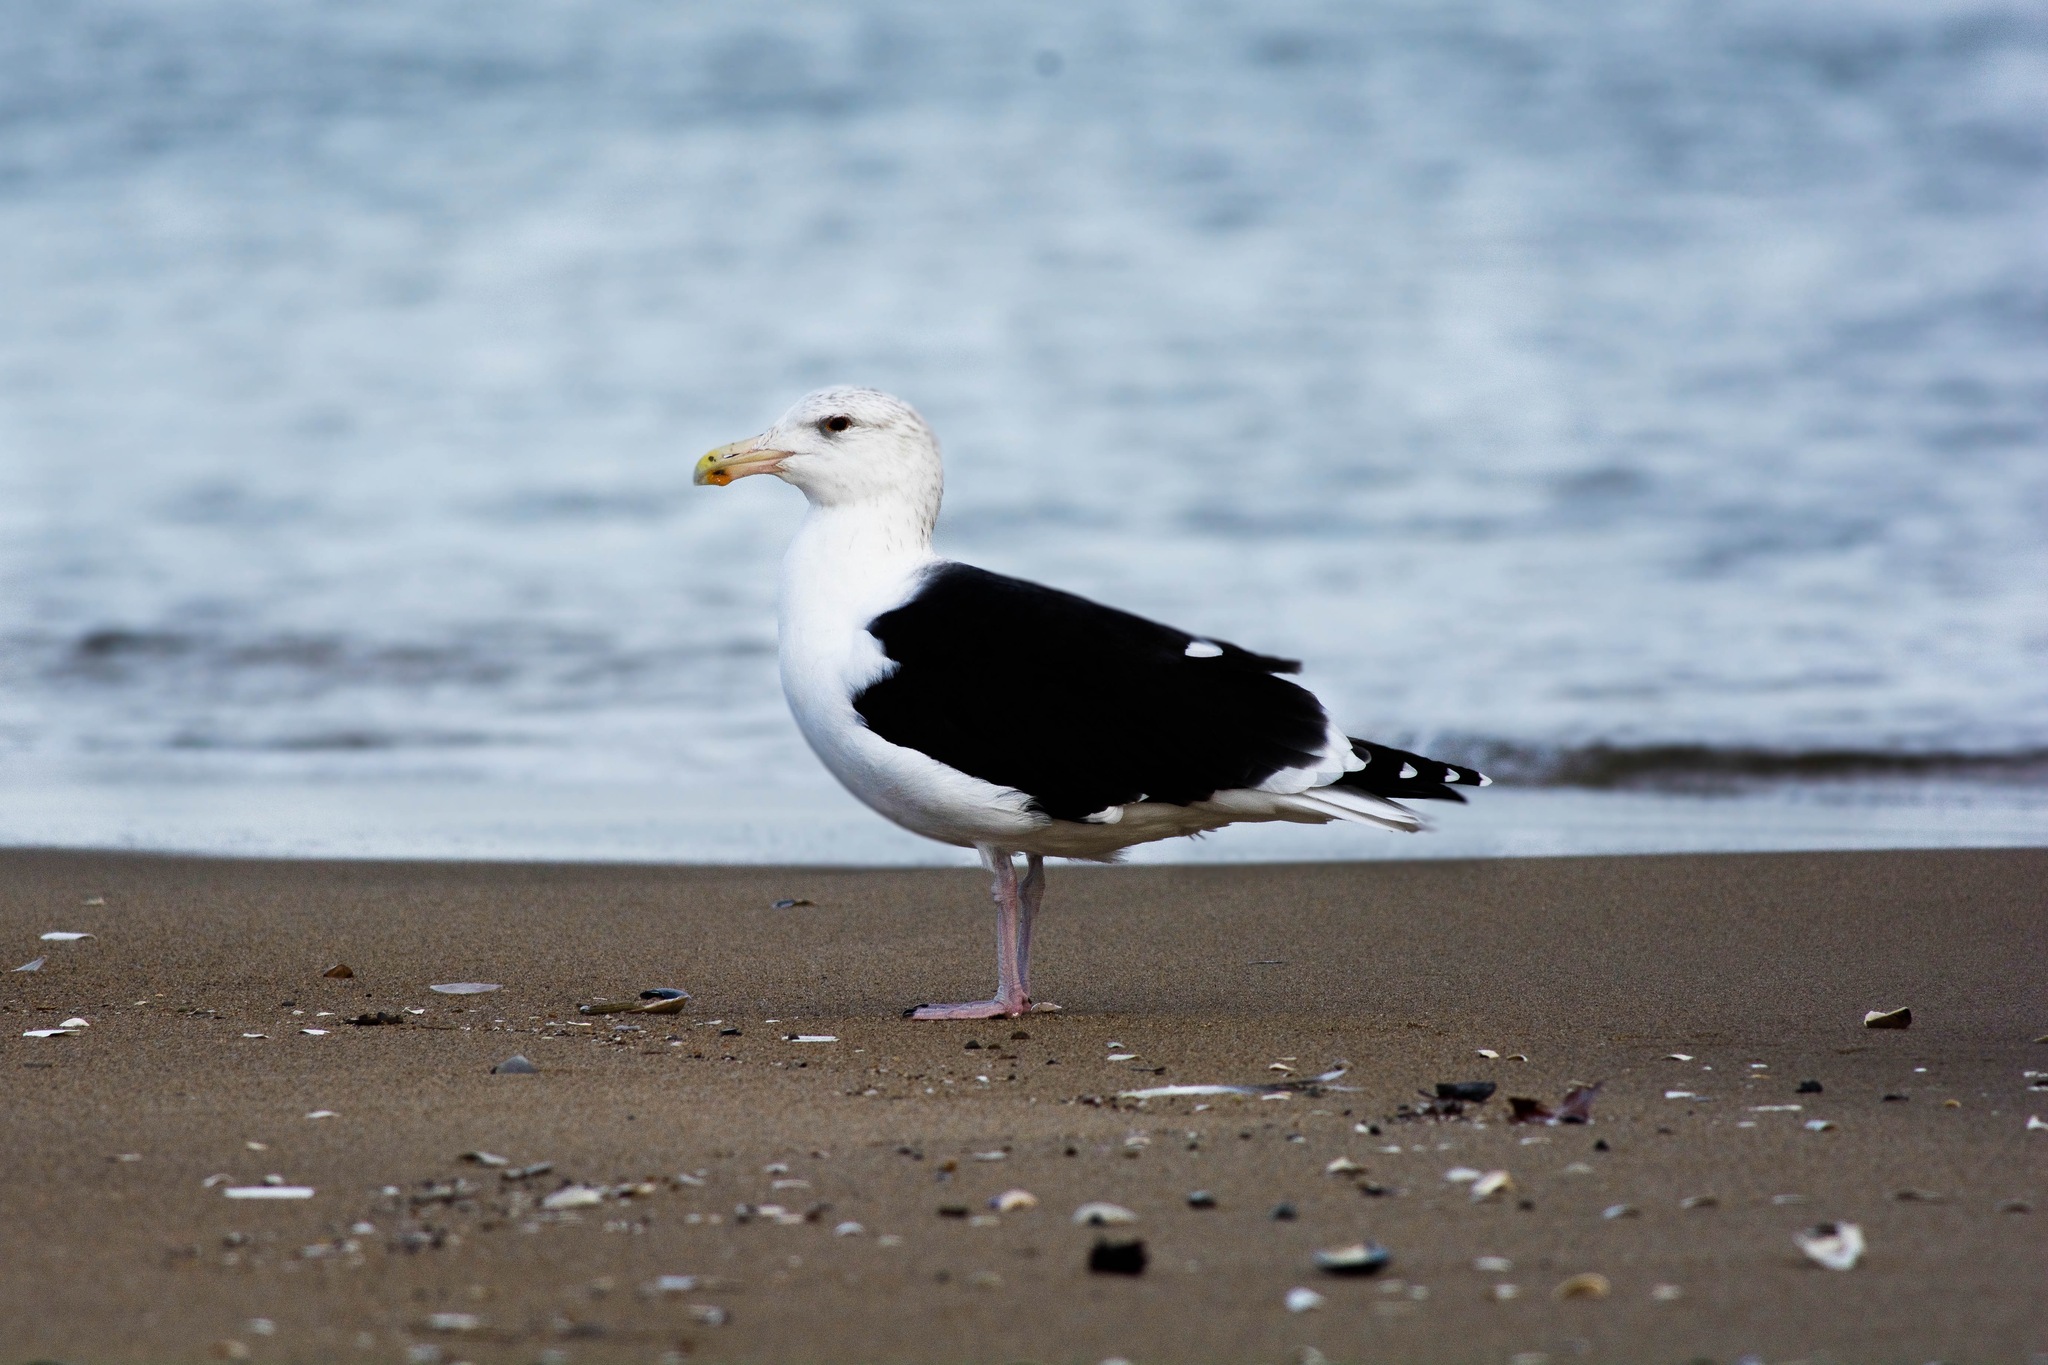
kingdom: Animalia
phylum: Chordata
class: Aves
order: Charadriiformes
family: Laridae
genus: Larus
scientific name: Larus marinus
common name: Great black-backed gull
